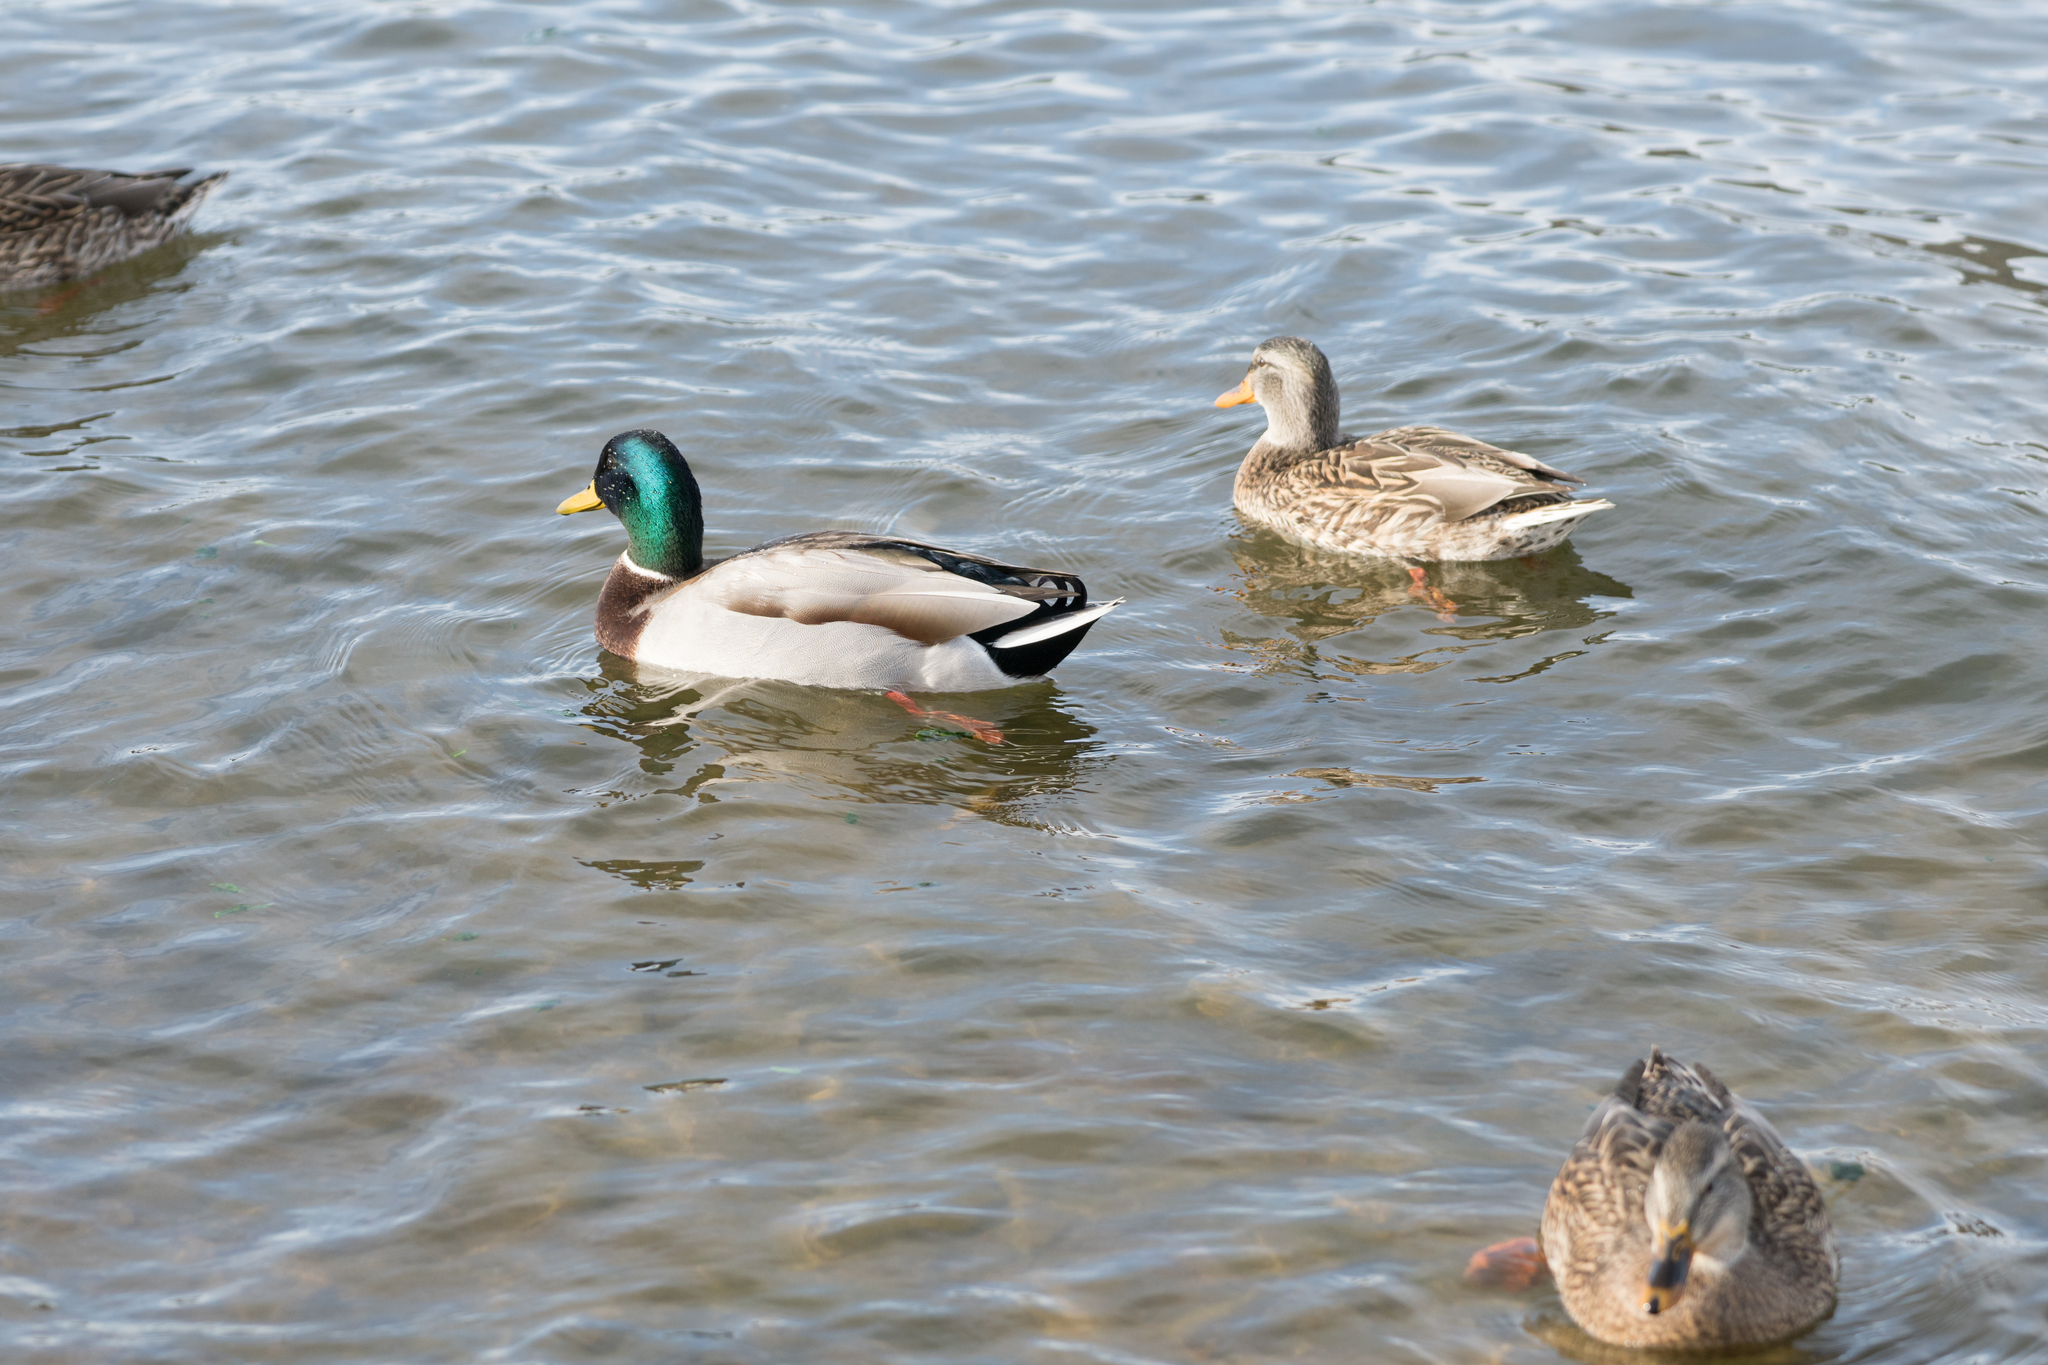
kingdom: Animalia
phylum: Chordata
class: Aves
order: Anseriformes
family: Anatidae
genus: Anas
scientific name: Anas platyrhynchos
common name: Mallard
